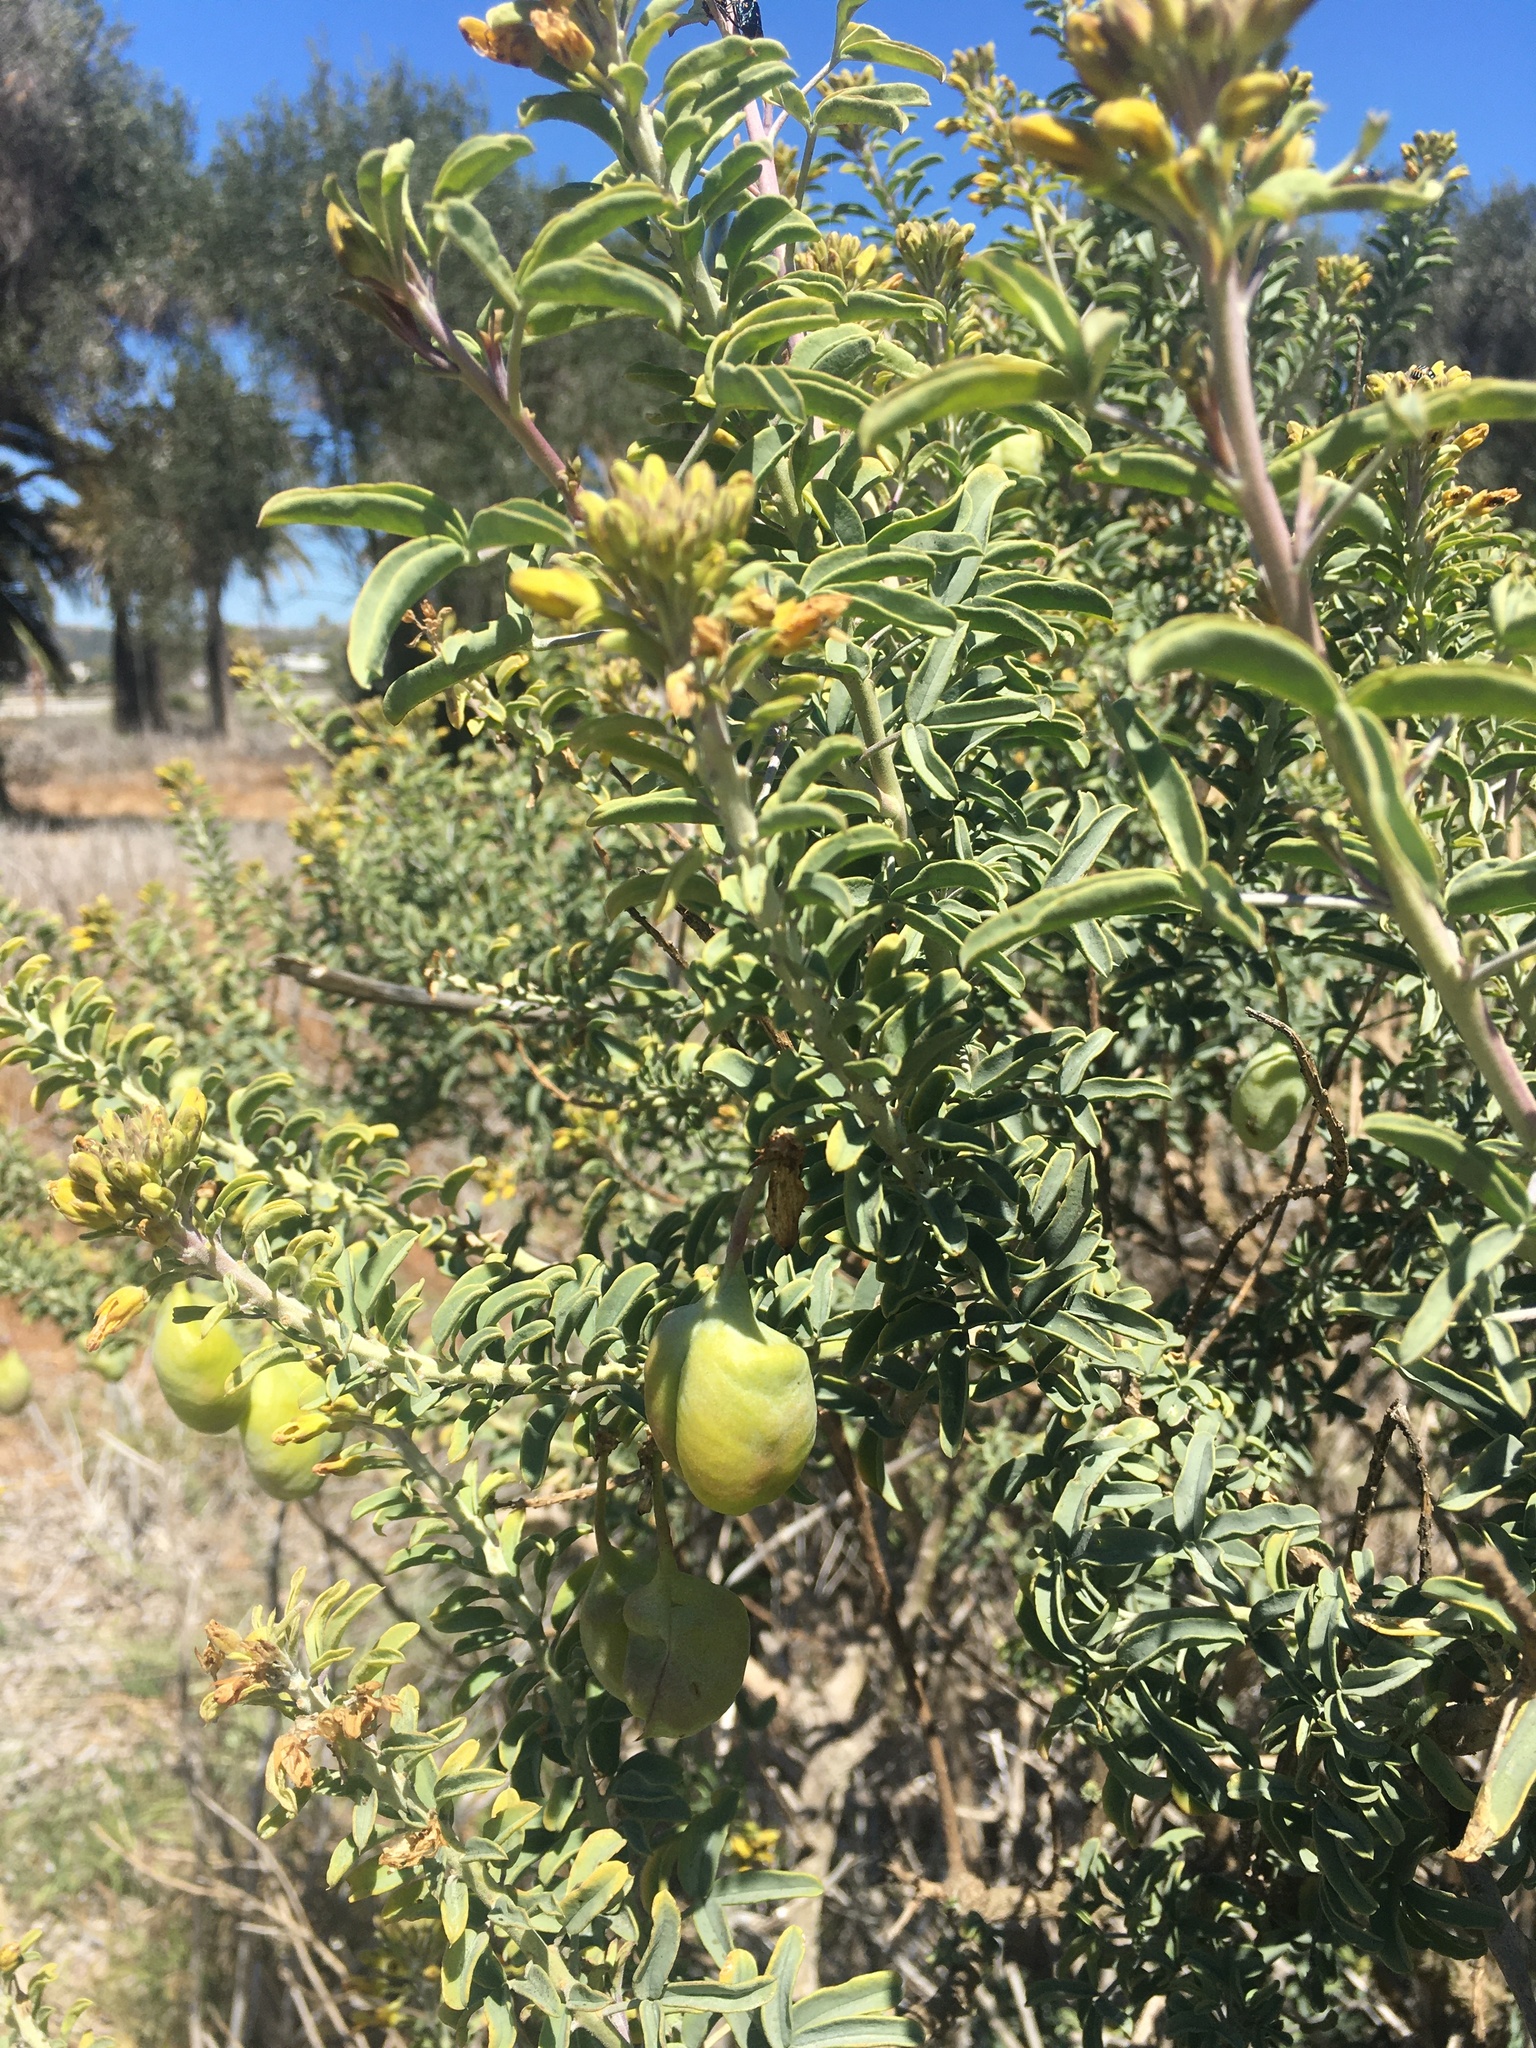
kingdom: Plantae
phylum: Tracheophyta
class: Magnoliopsida
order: Brassicales
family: Cleomaceae
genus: Cleomella
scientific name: Cleomella arborea
